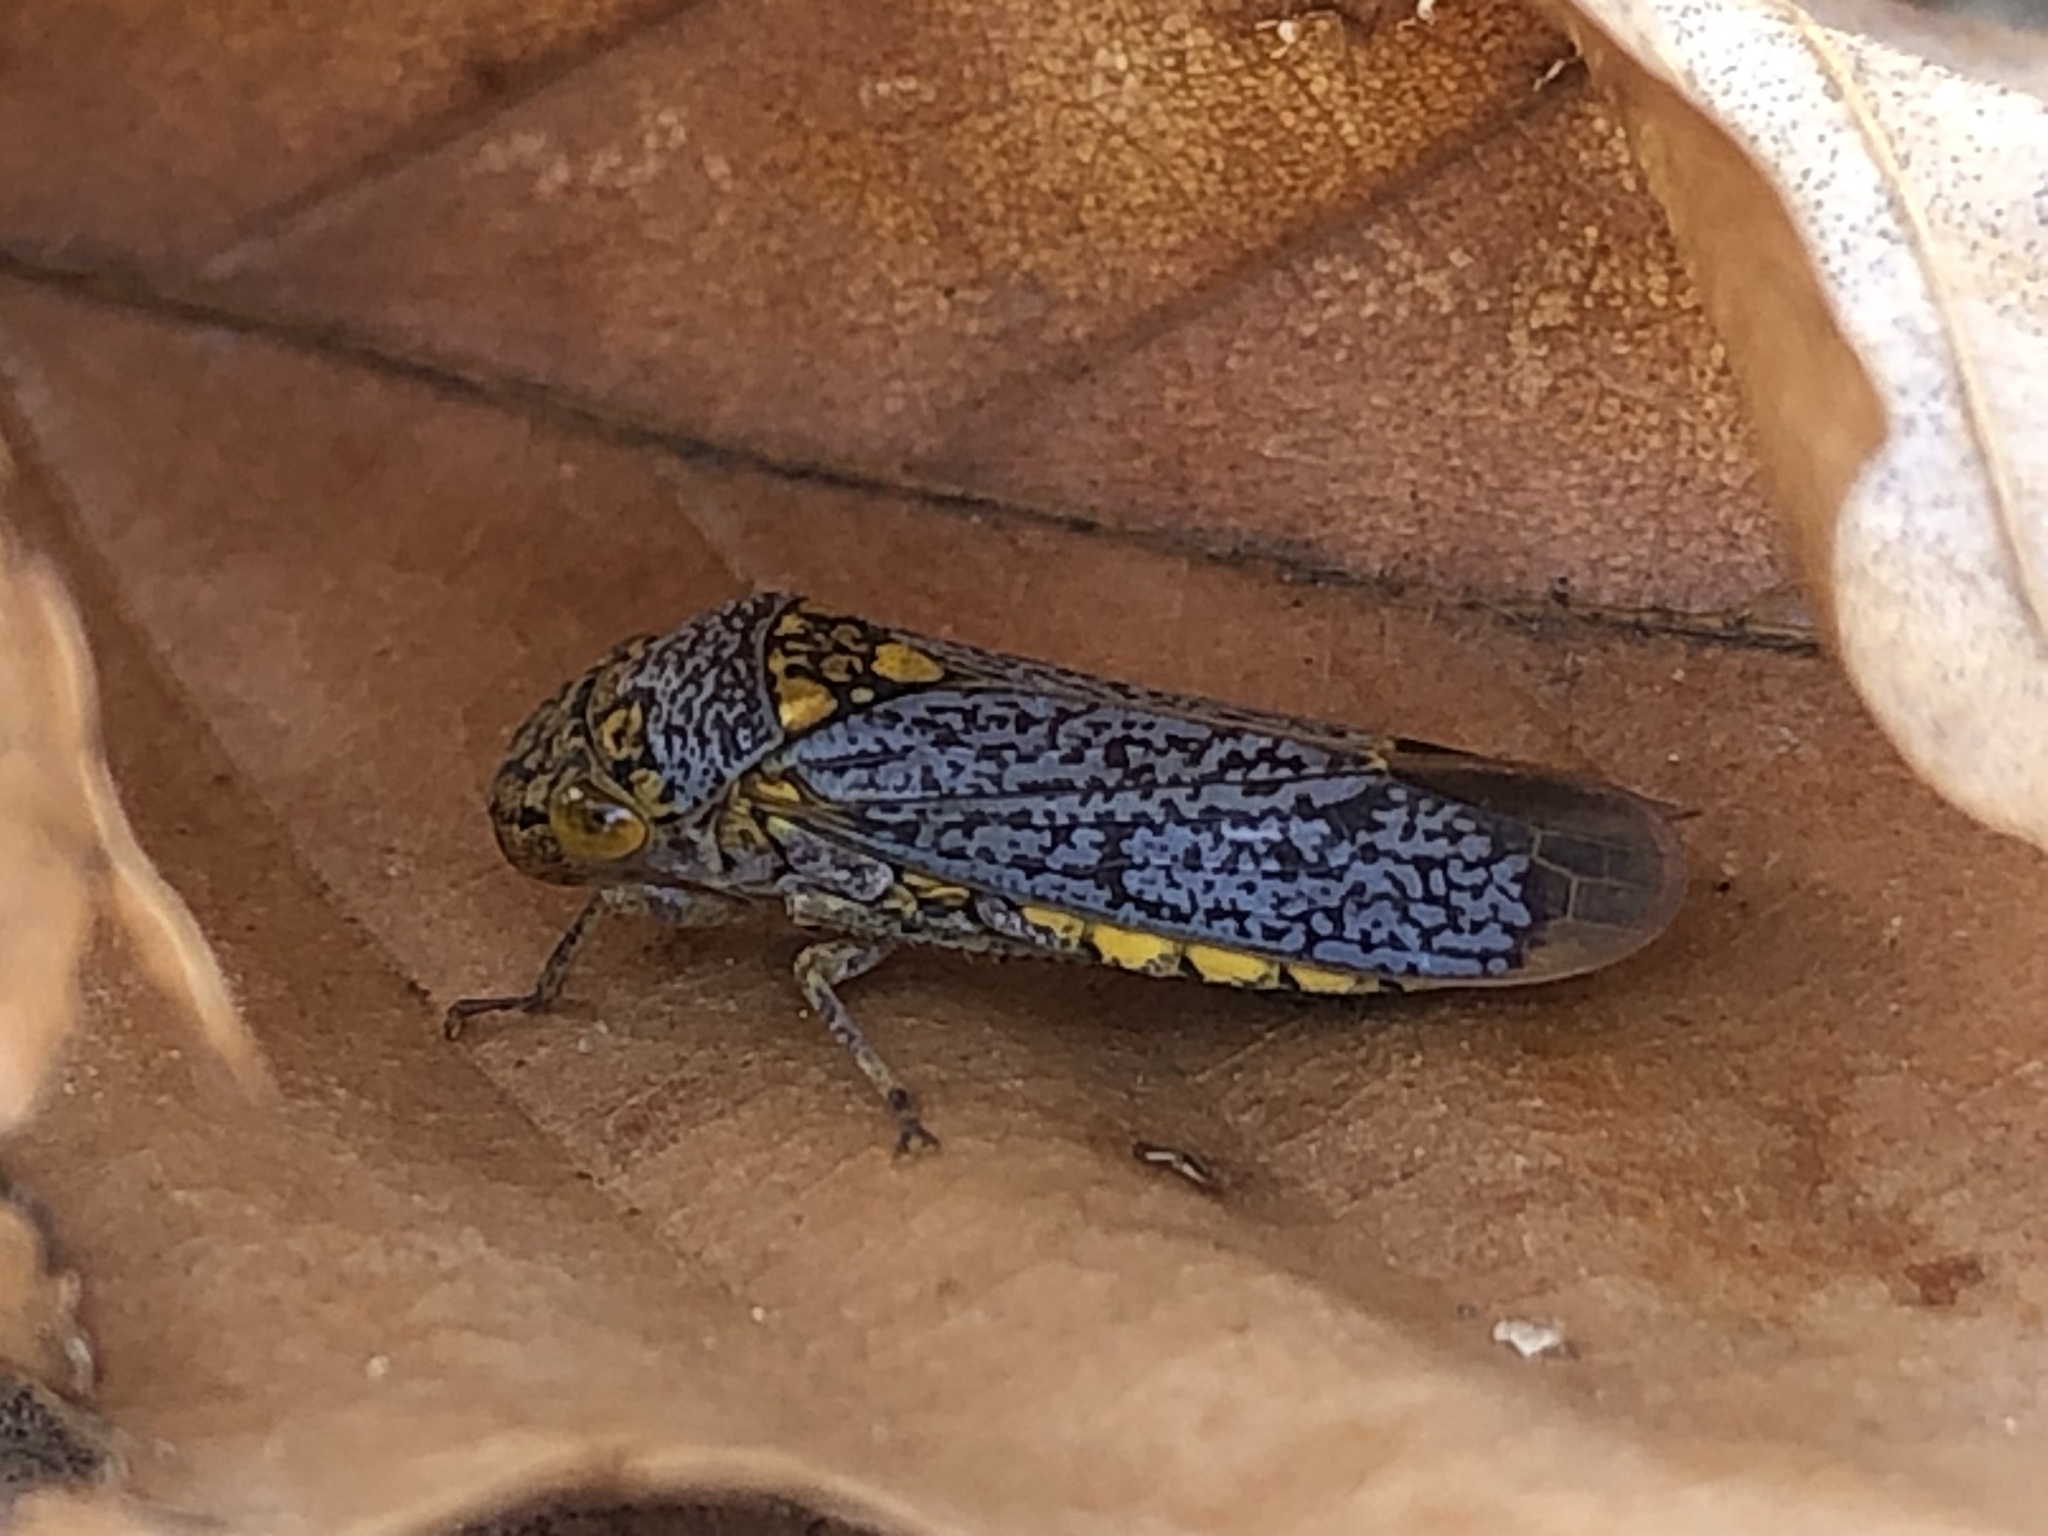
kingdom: Animalia
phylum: Arthropoda
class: Insecta
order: Hemiptera
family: Cicadellidae
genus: Oncometopia
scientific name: Oncometopia orbona
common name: Broad-headed sharpshooter
